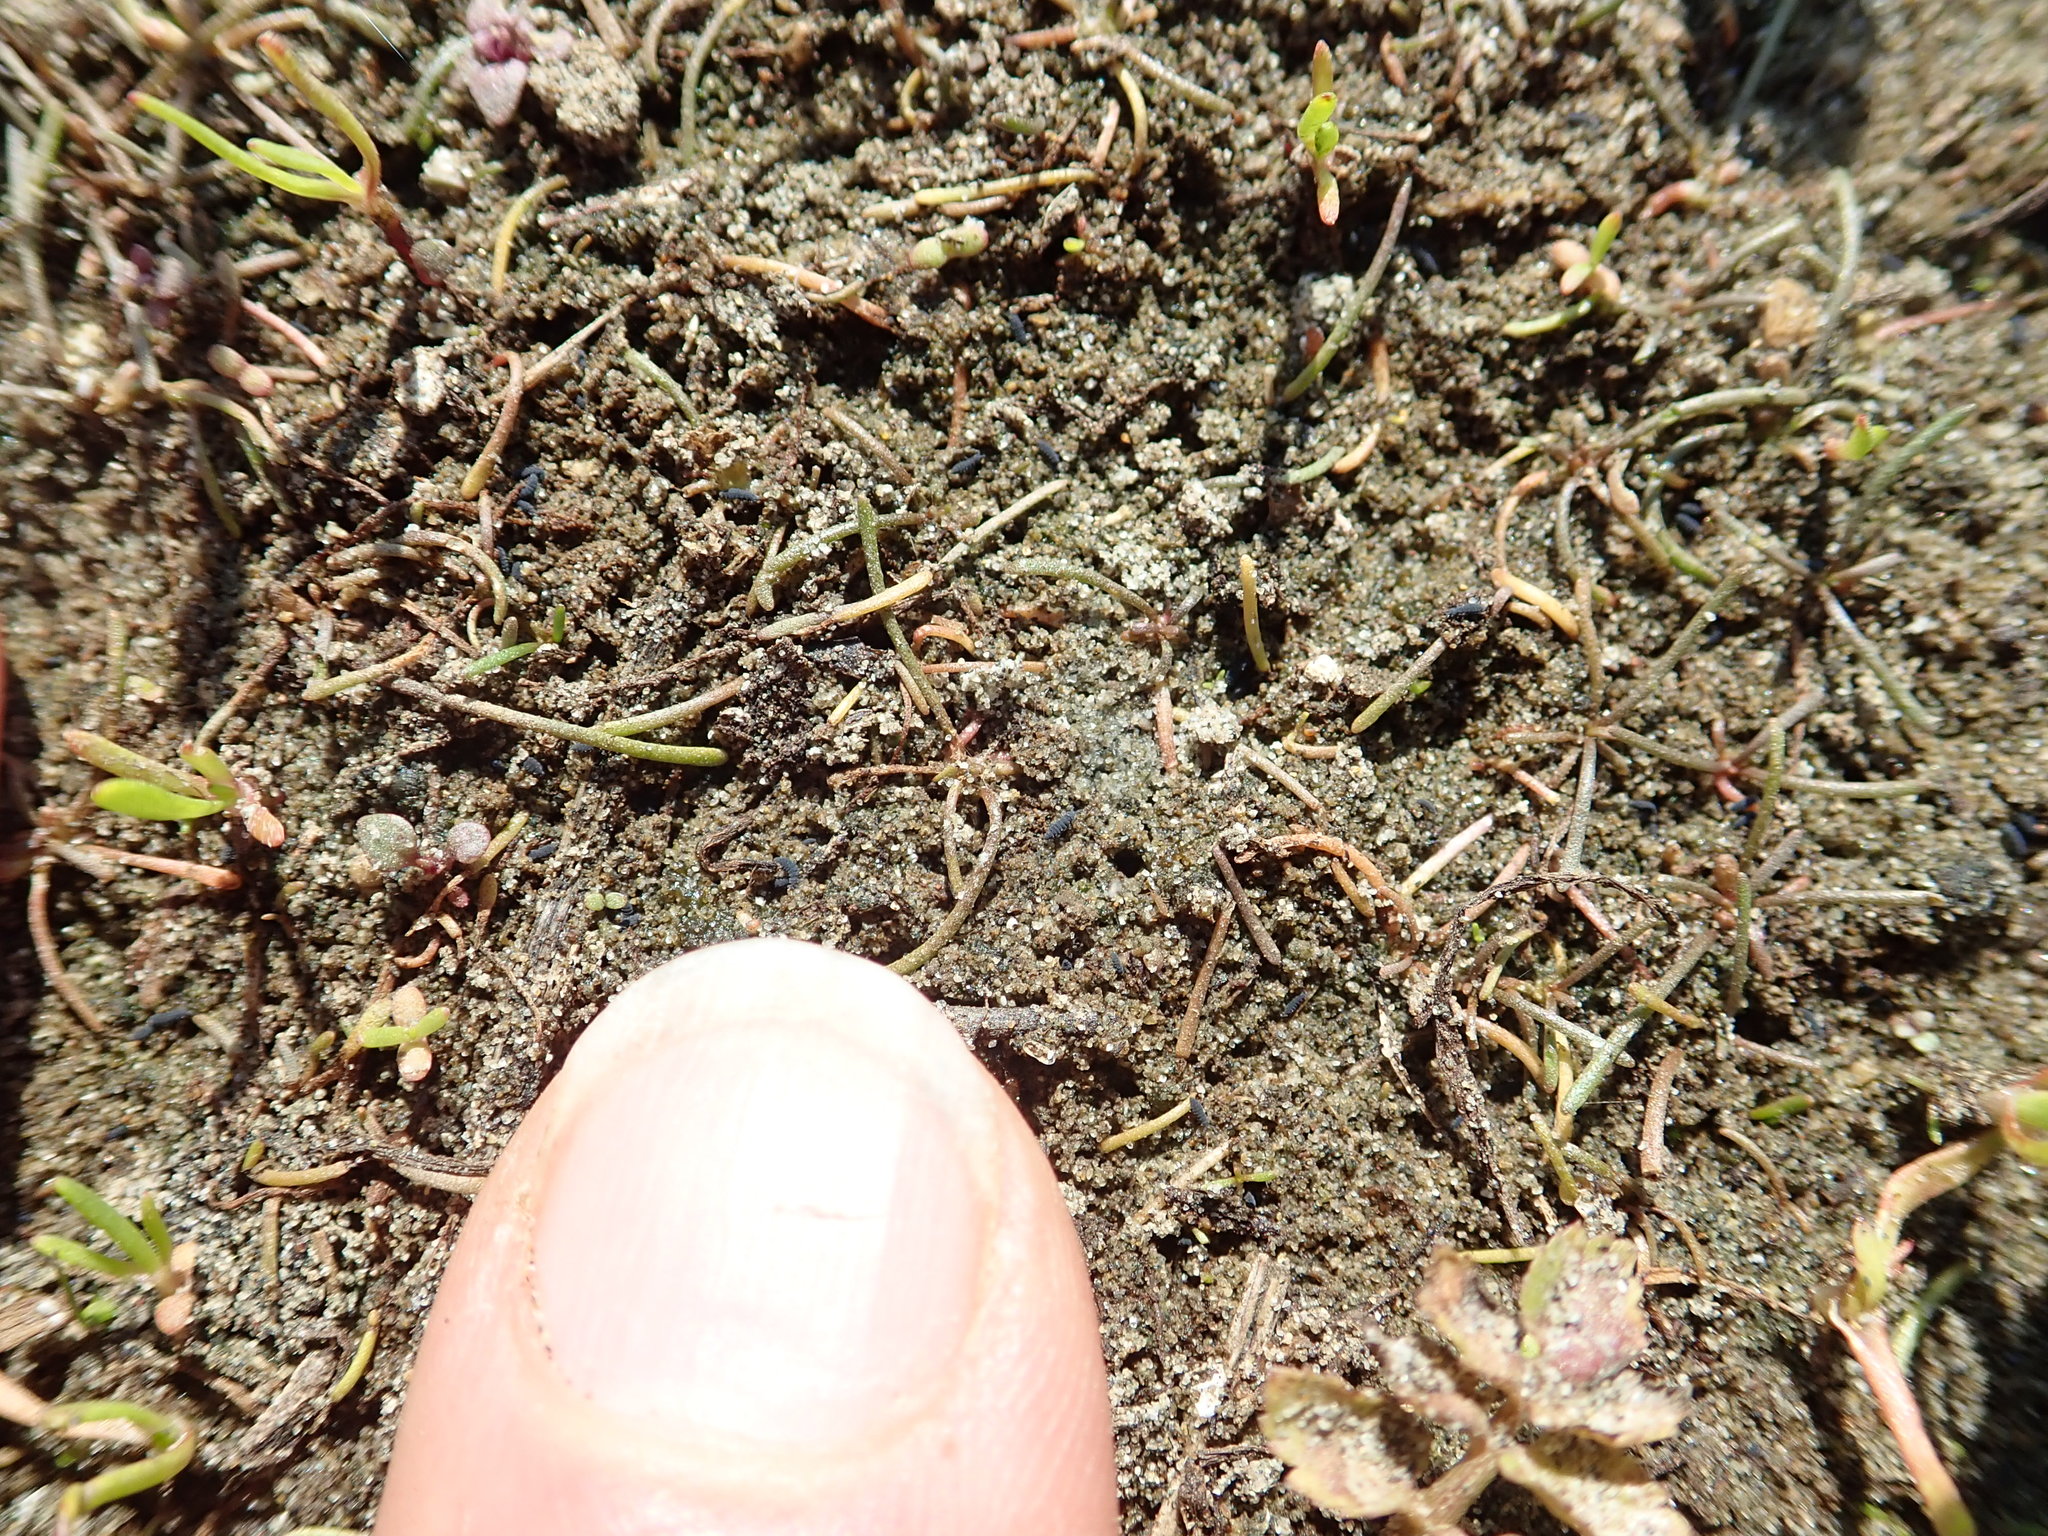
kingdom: Plantae
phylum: Tracheophyta
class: Magnoliopsida
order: Lamiales
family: Scrophulariaceae
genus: Limosella
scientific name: Limosella australis
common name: Welsh mudwort
